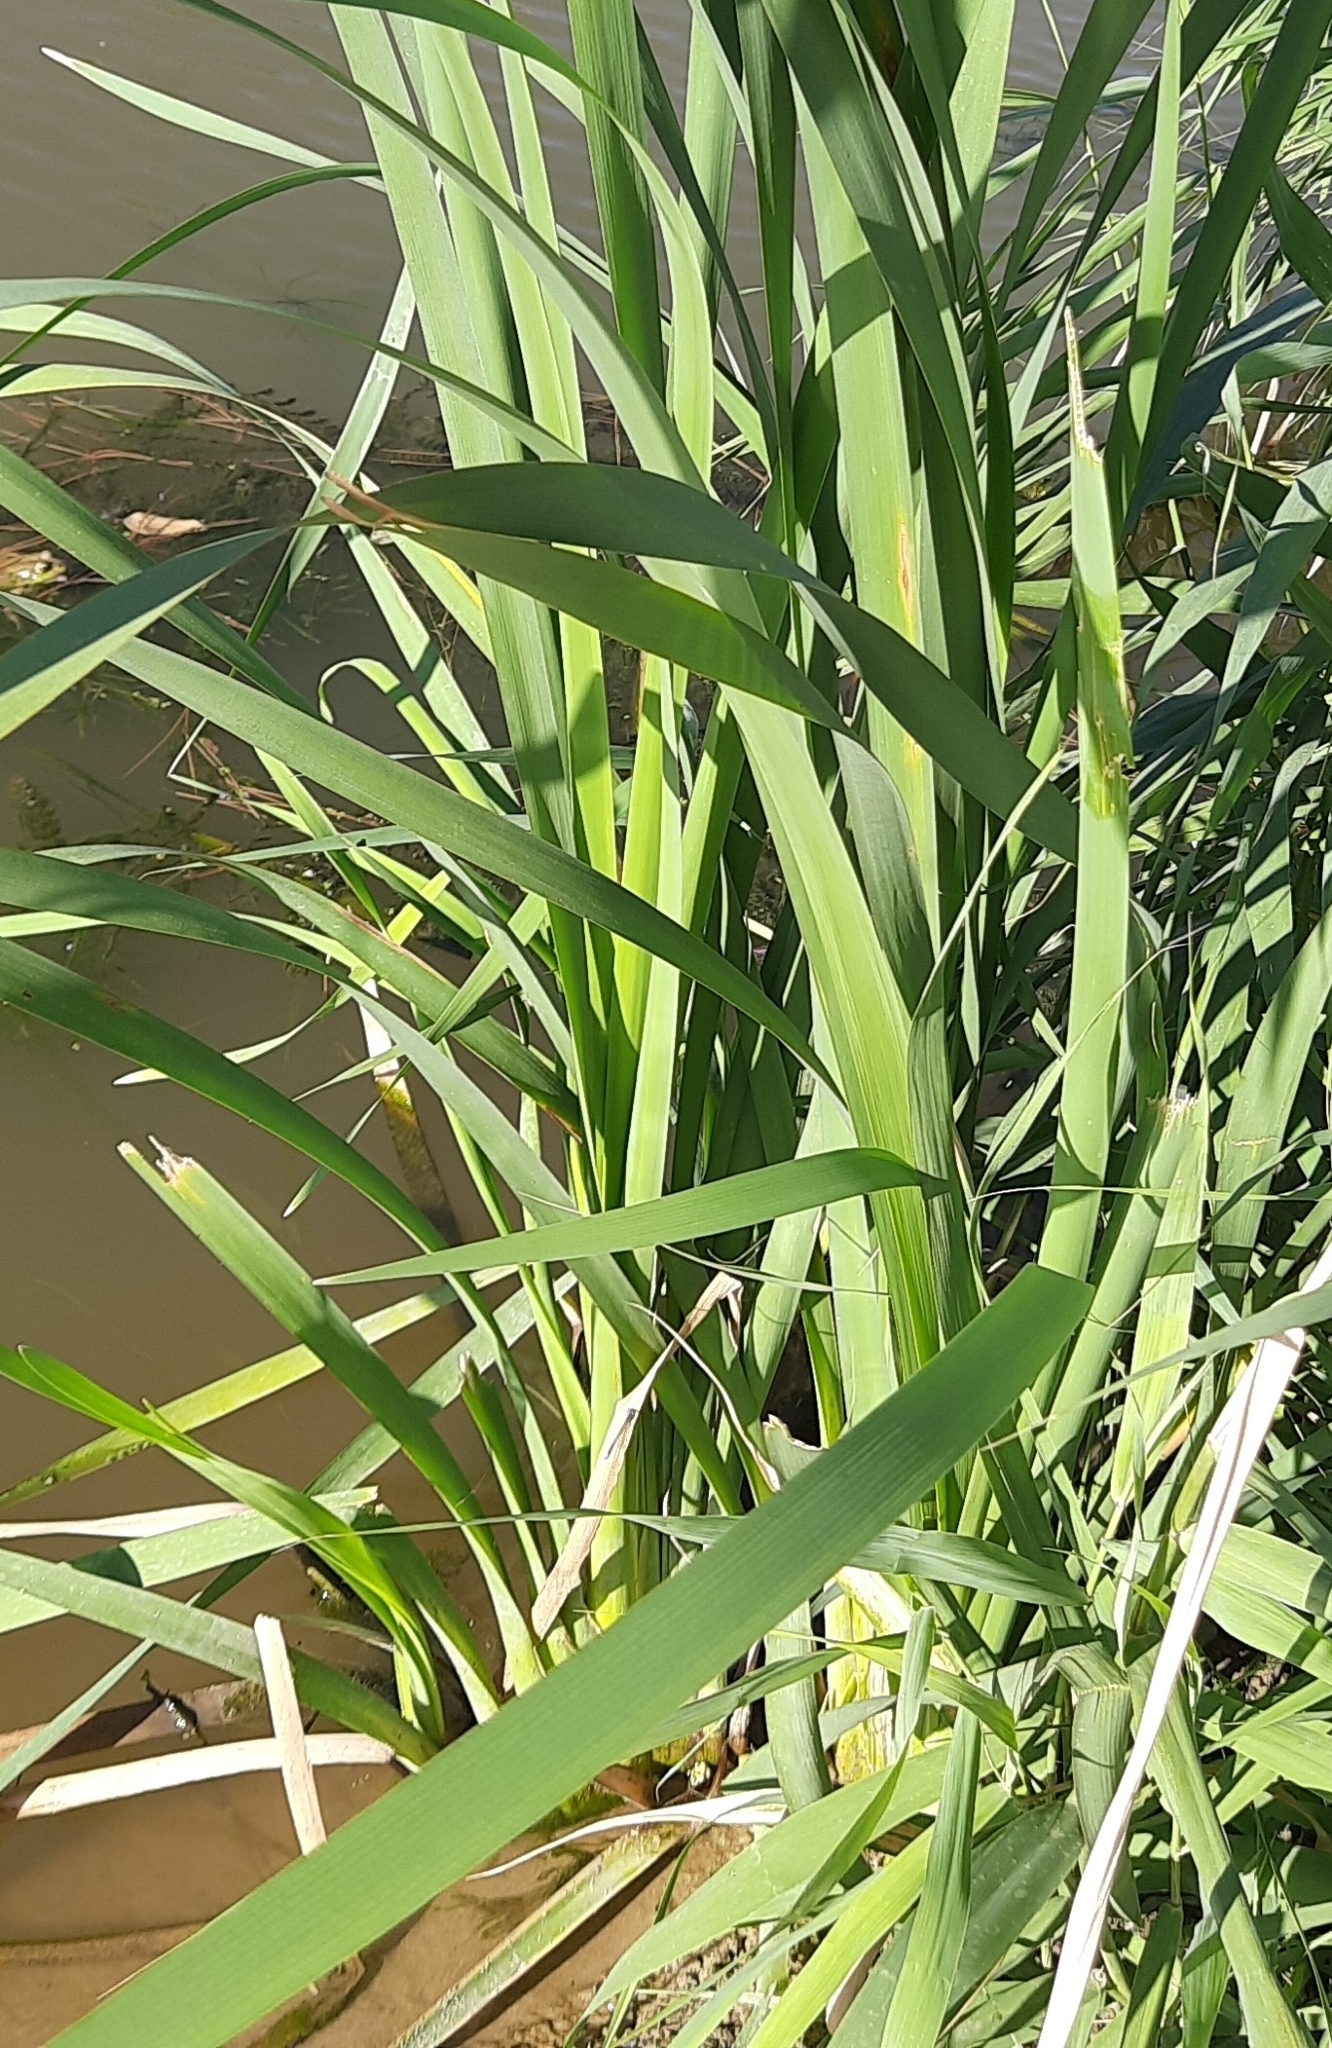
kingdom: Plantae
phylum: Tracheophyta
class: Liliopsida
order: Poales
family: Typhaceae
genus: Typha
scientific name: Typha latifolia
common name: Broadleaf cattail
